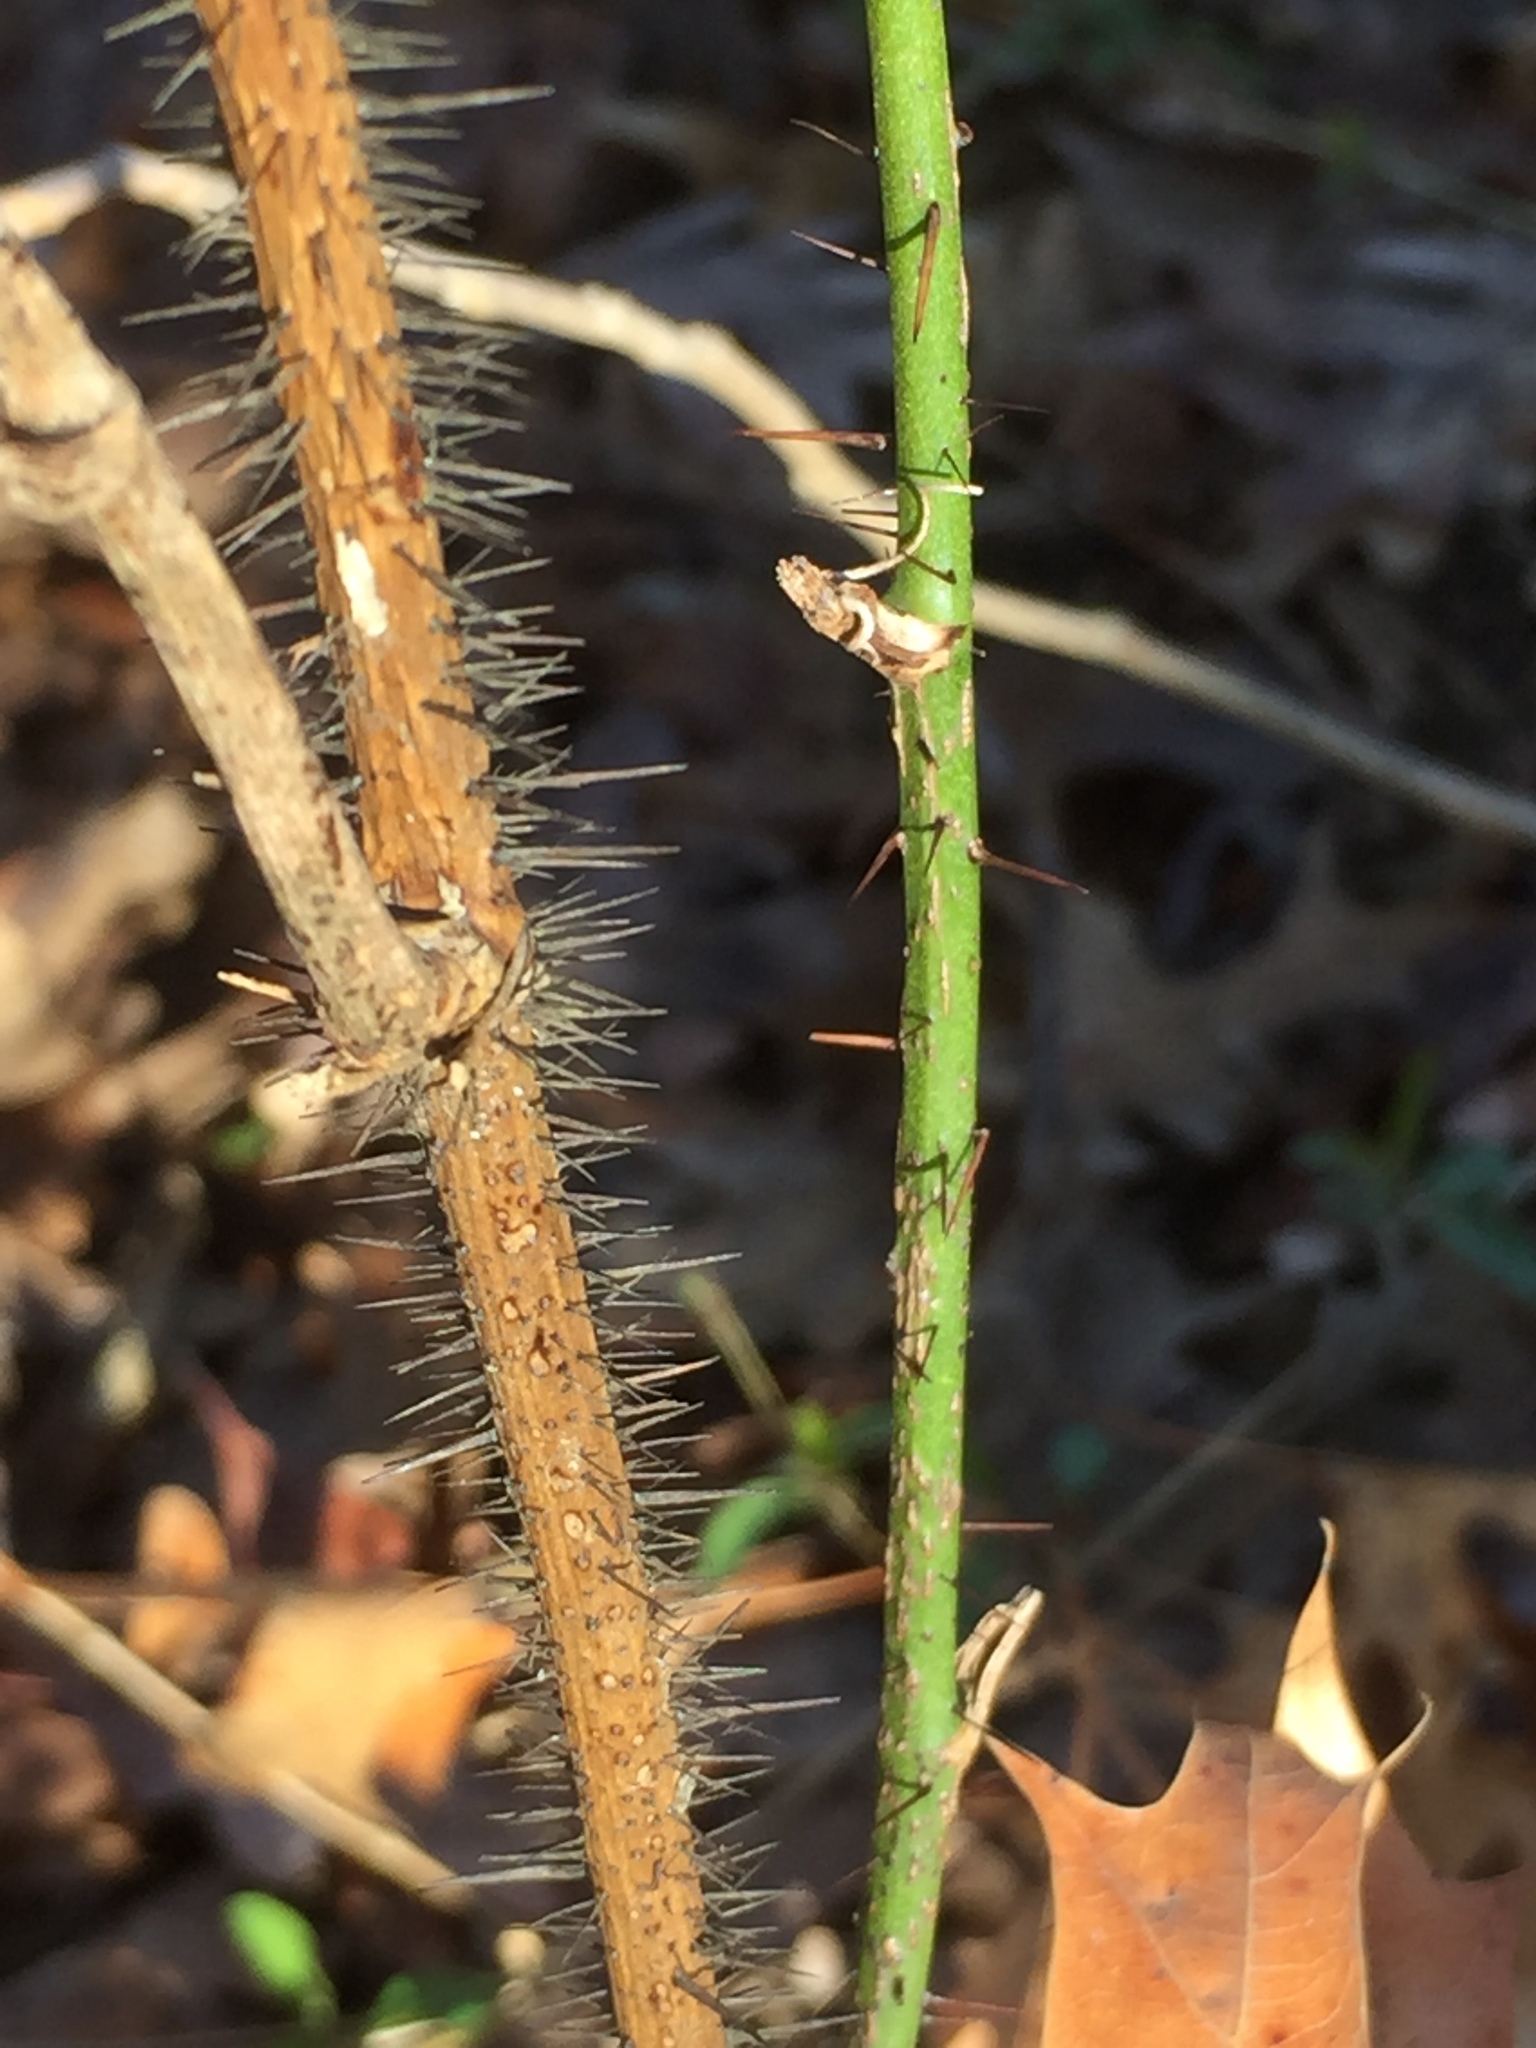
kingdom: Plantae
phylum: Tracheophyta
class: Liliopsida
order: Liliales
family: Smilacaceae
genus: Smilax
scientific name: Smilax tamnoides
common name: Hellfetter
